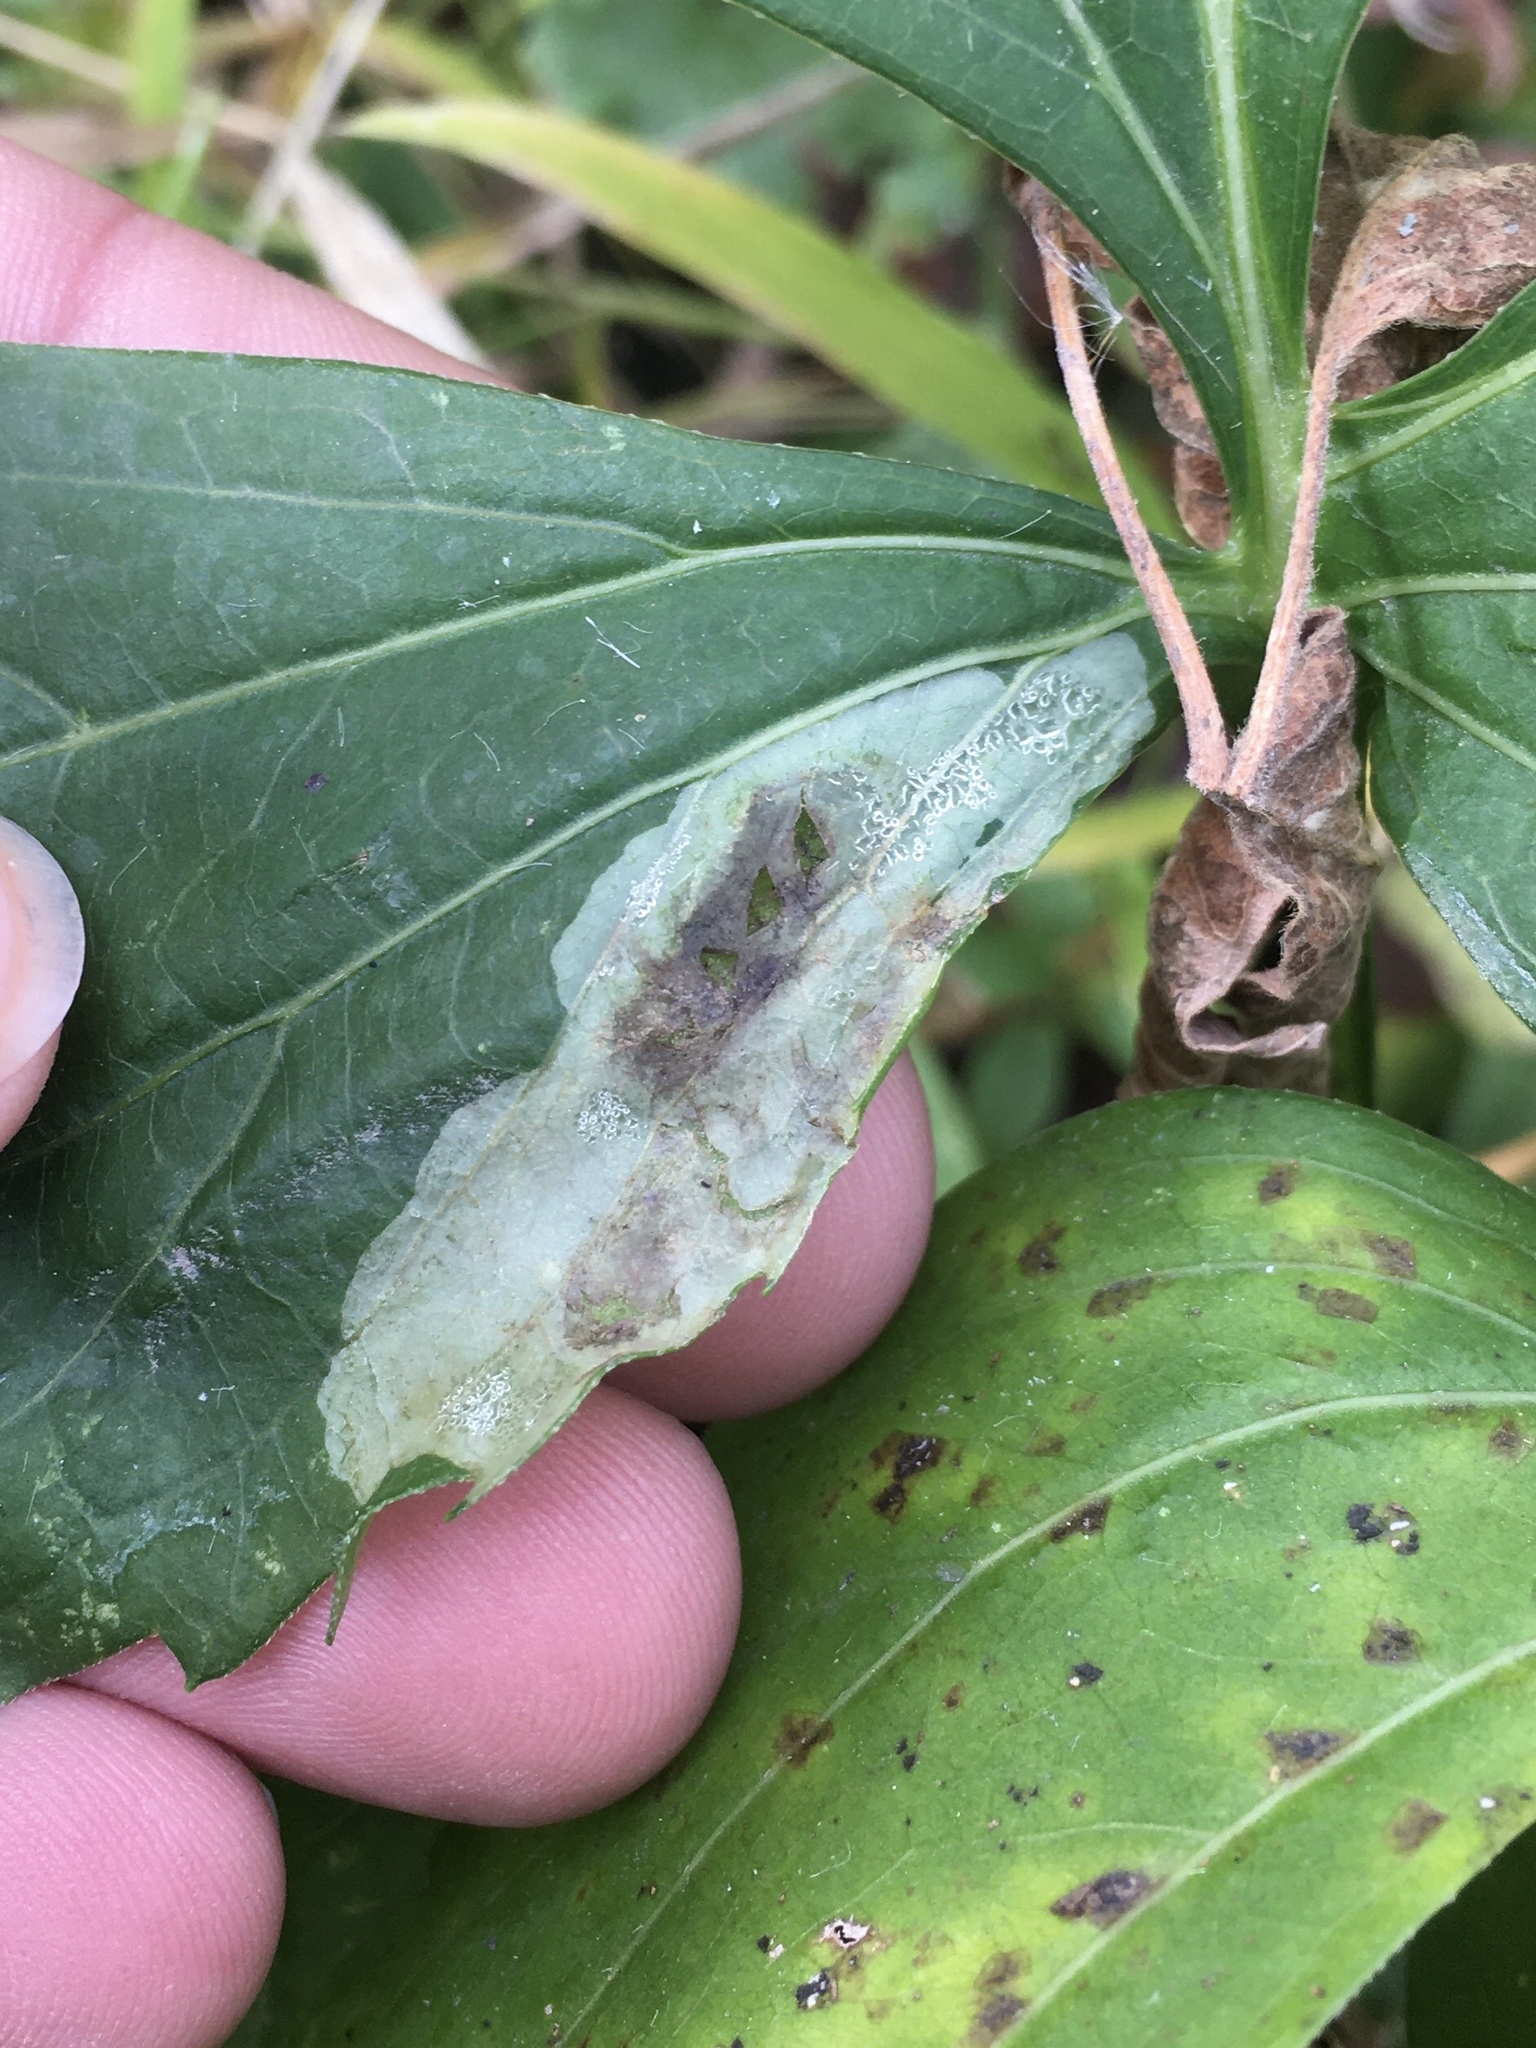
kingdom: Animalia
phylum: Arthropoda
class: Insecta
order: Diptera
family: Agromyzidae
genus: Calycomyza
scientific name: Calycomyza frickiana
